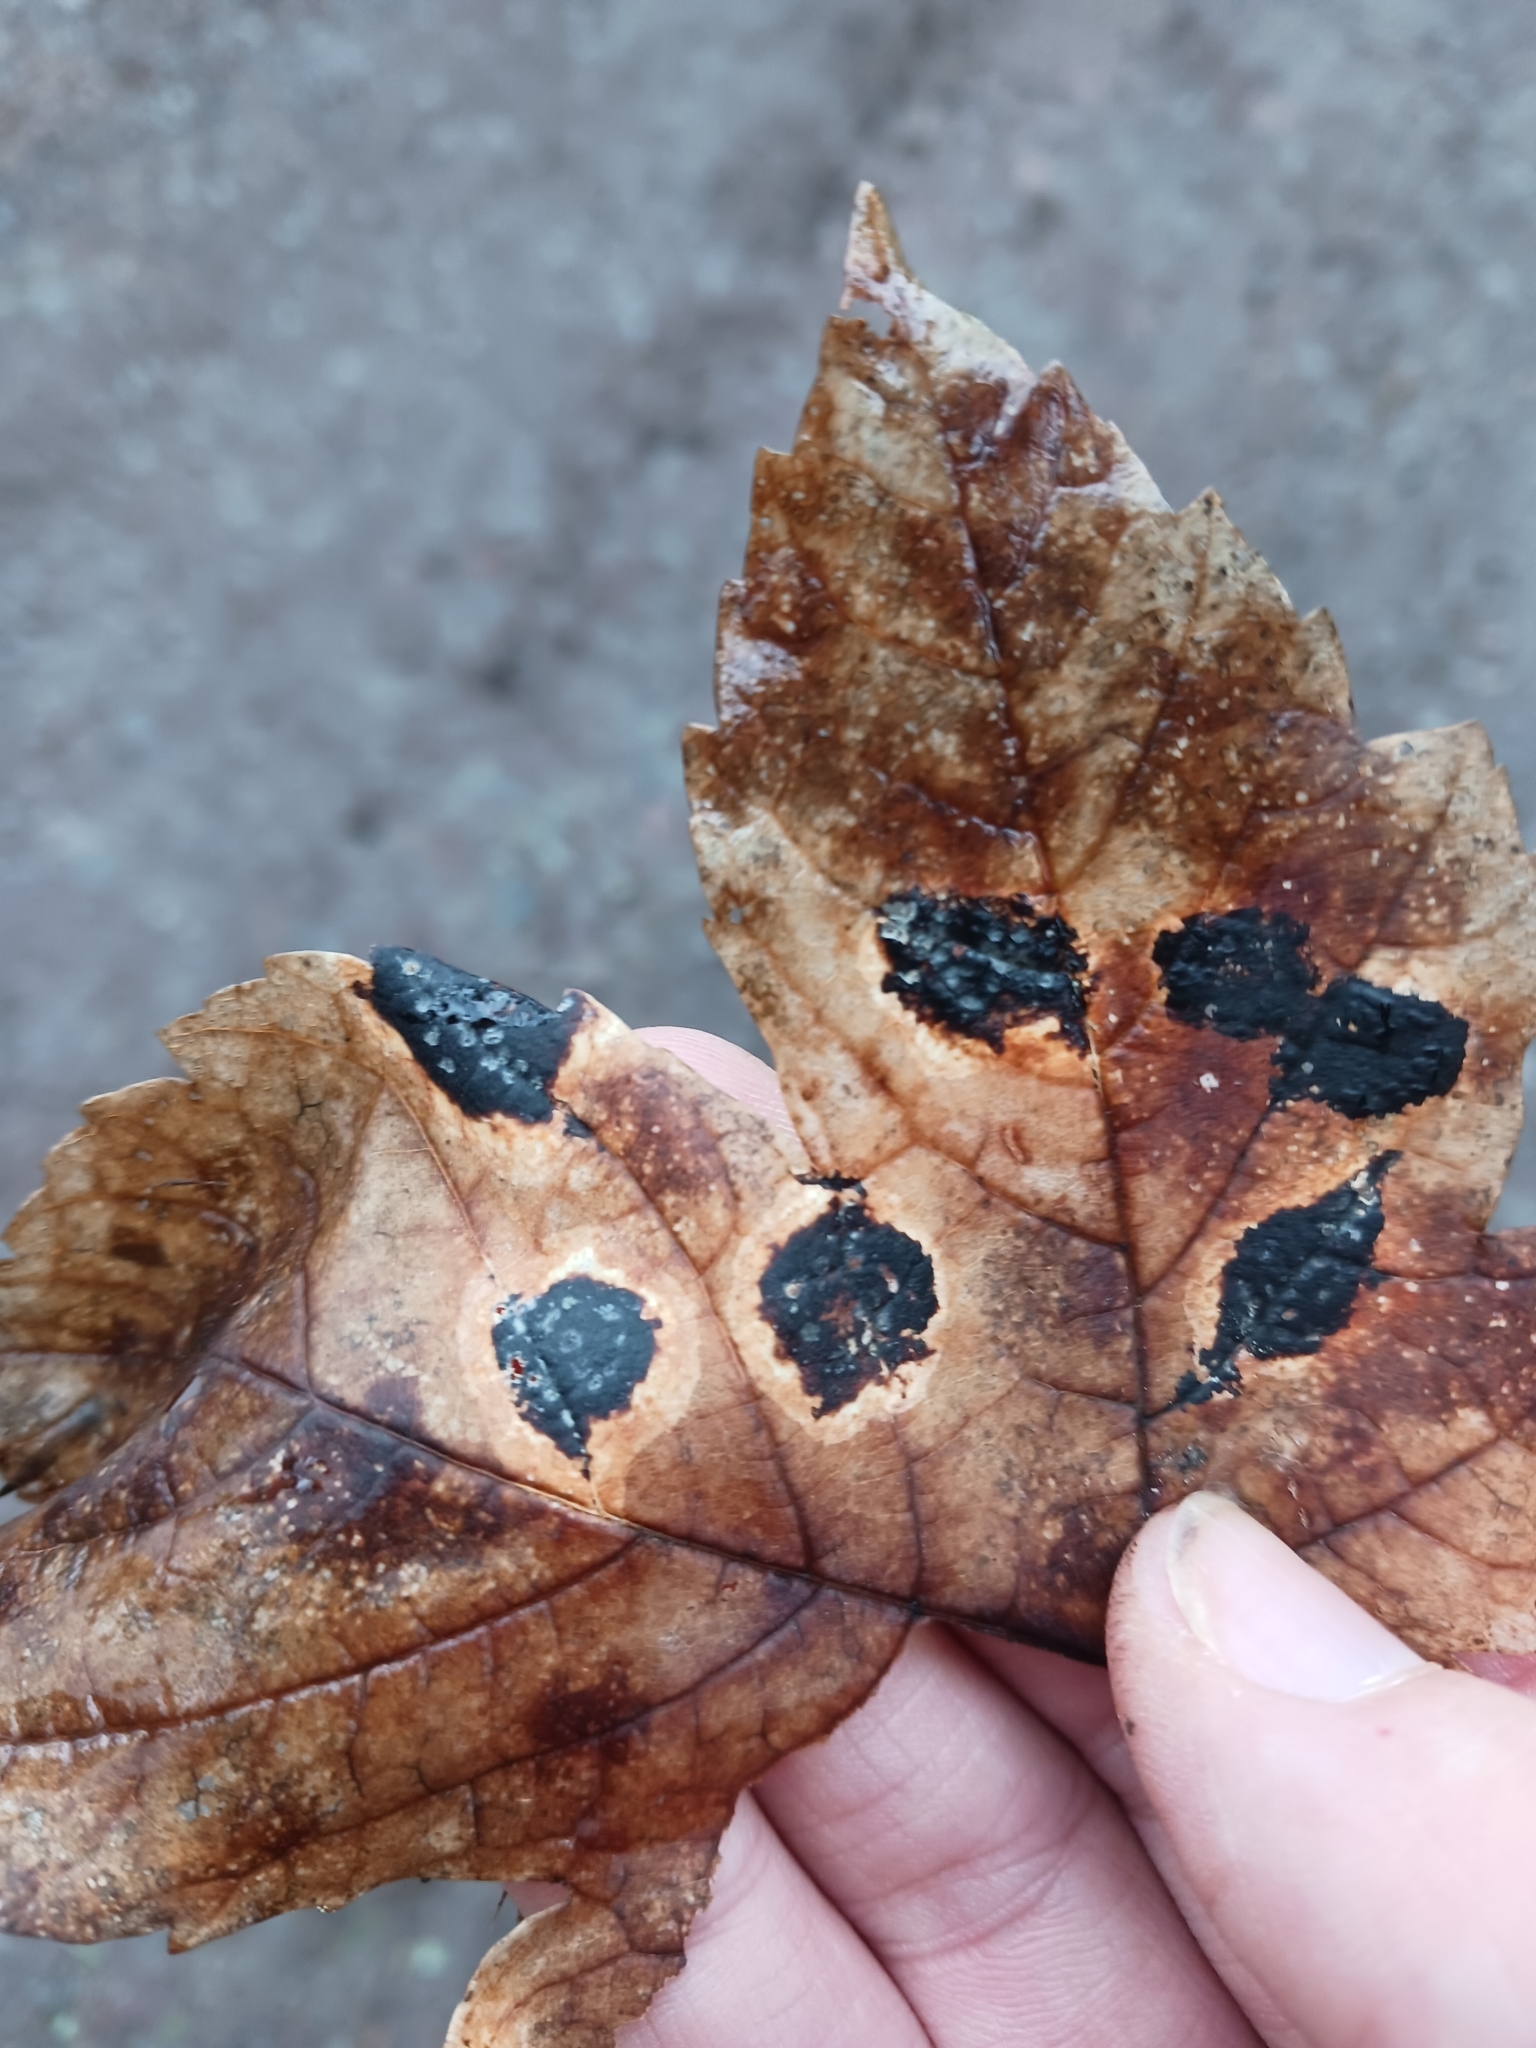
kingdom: Fungi
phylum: Ascomycota
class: Leotiomycetes
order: Rhytismatales
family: Rhytismataceae
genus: Rhytisma
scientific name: Rhytisma acerinum
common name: European tar spot
